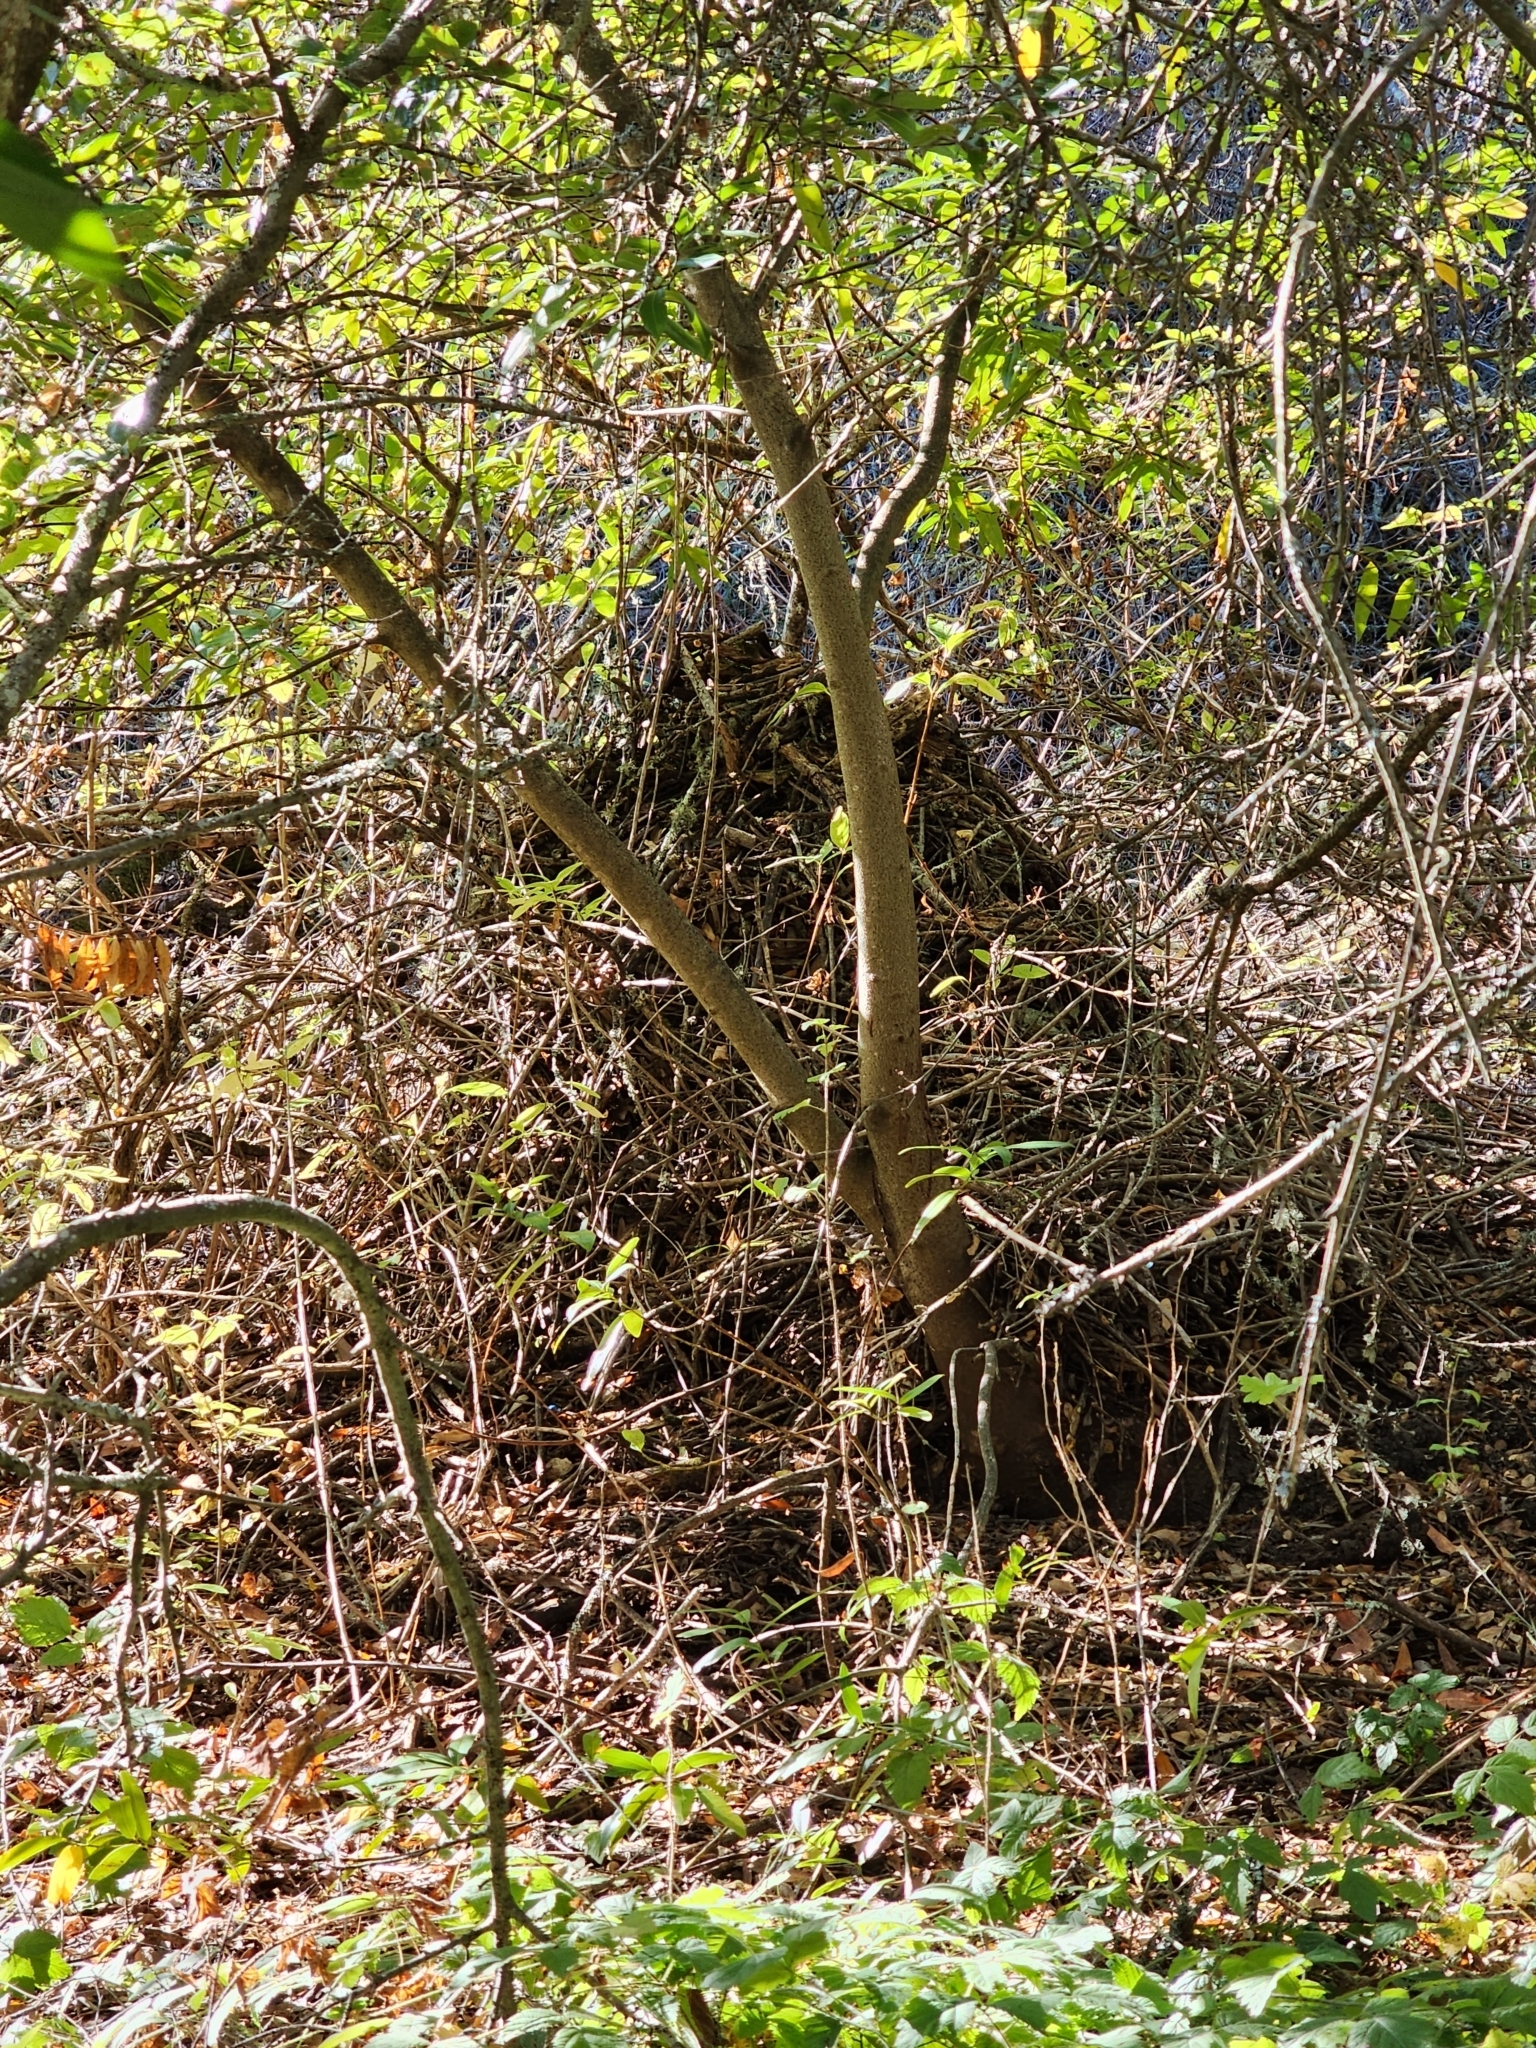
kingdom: Animalia
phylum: Chordata
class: Mammalia
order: Rodentia
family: Cricetidae
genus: Neotoma
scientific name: Neotoma fuscipes
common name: Dusky-footed woodrat
